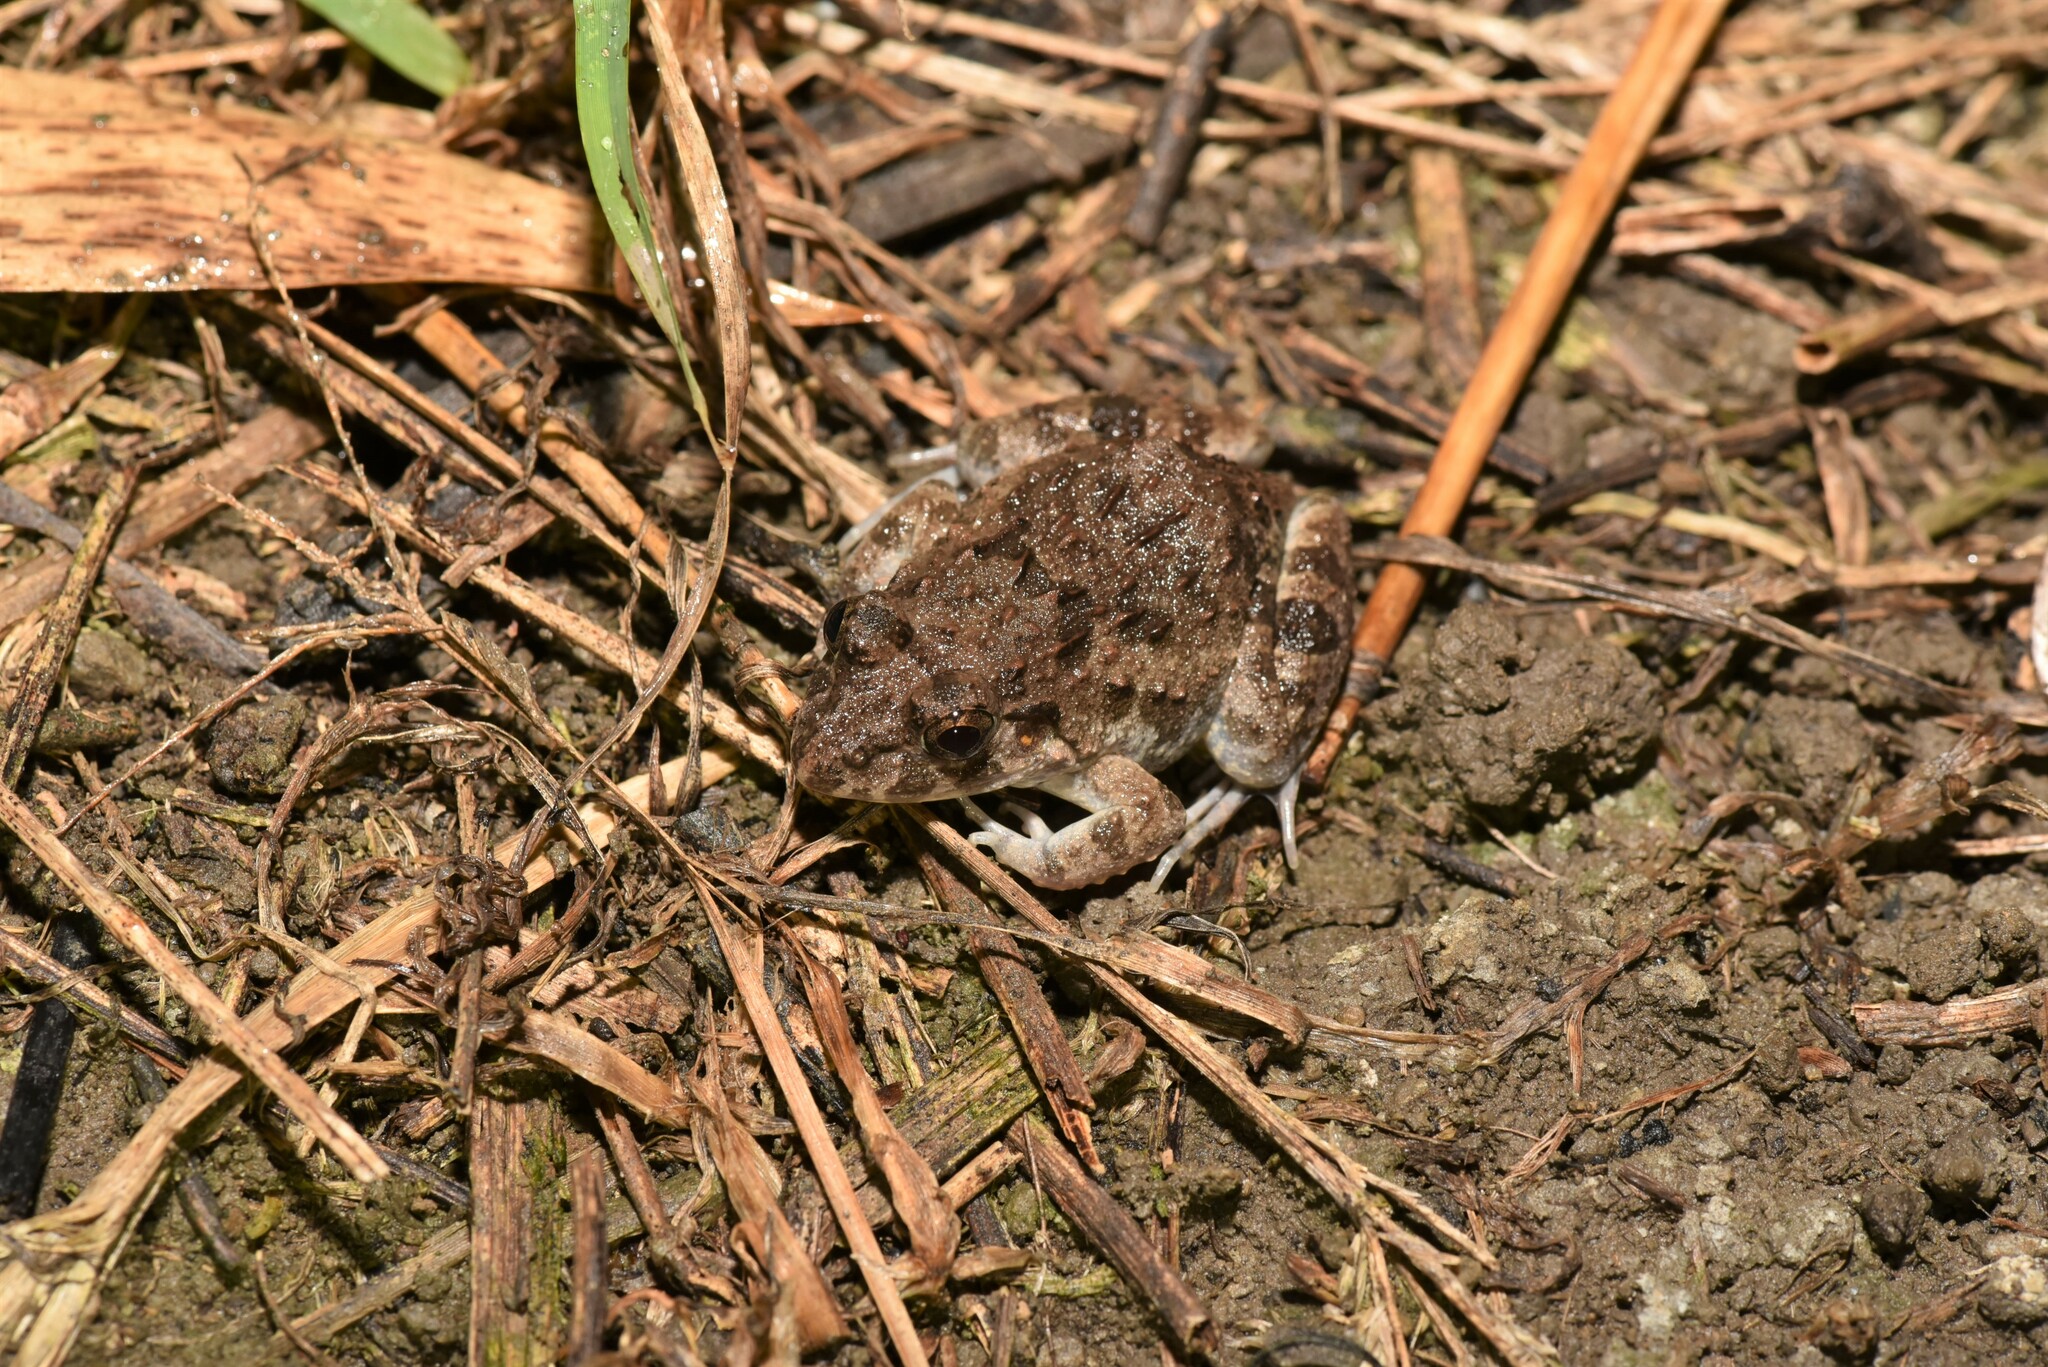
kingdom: Animalia
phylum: Chordata
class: Amphibia
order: Anura
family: Dicroglossidae
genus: Fejervarya
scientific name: Fejervarya limnocharis
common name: Asian grass frog/common pond frog/field frog/grass frog/indian rice frog
